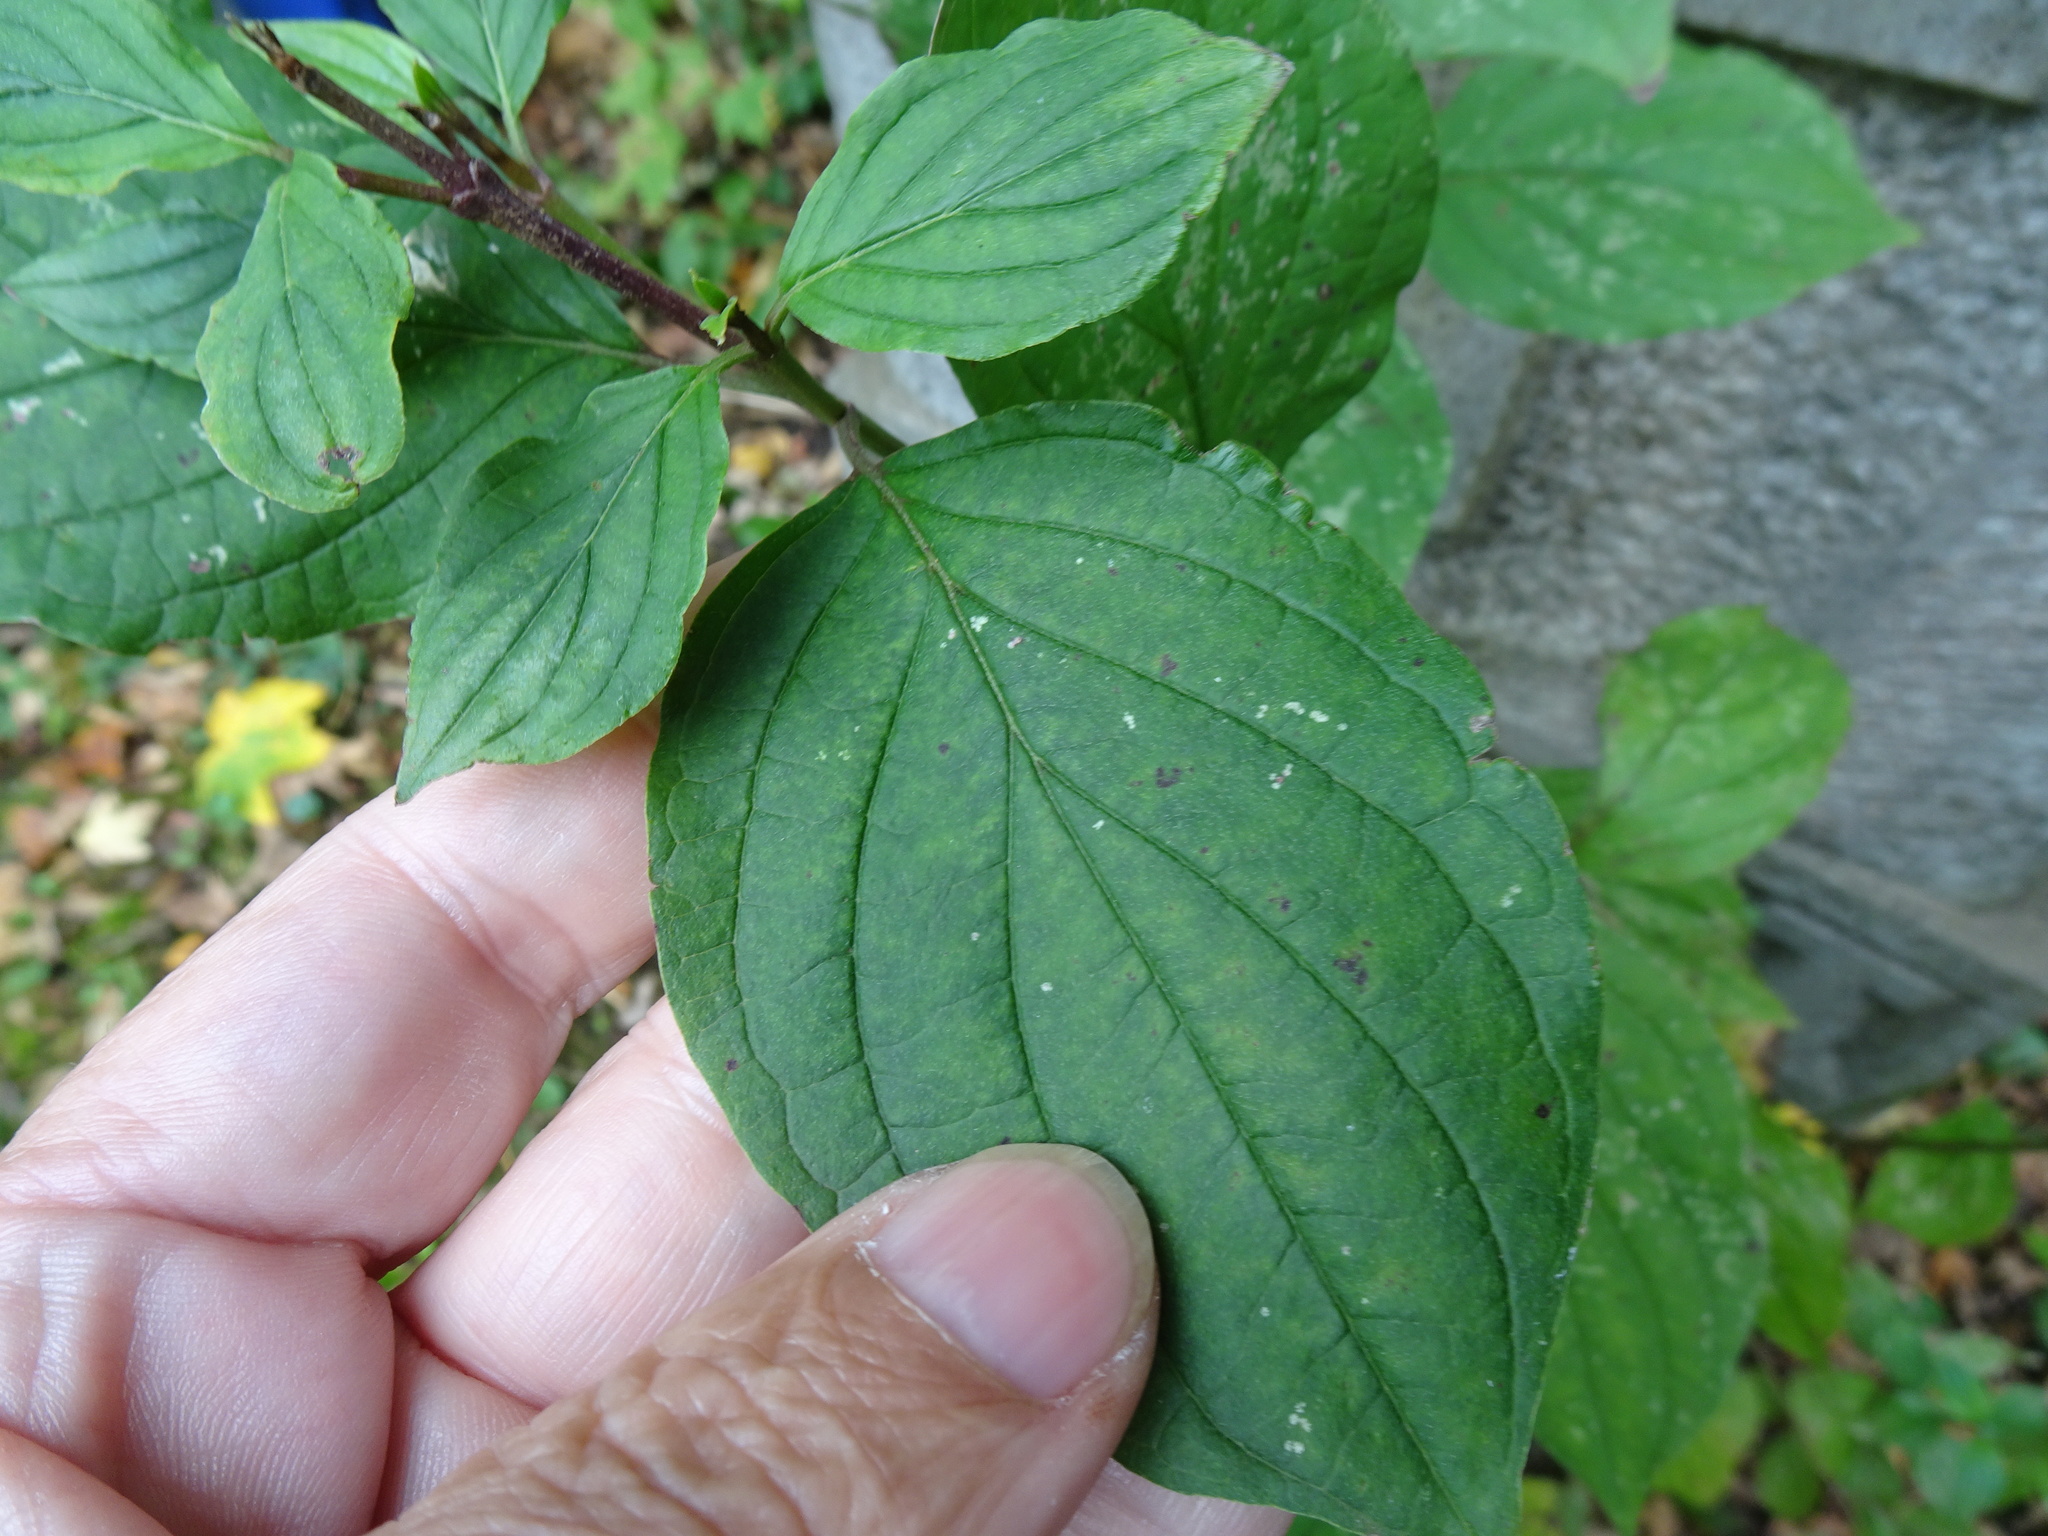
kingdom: Plantae
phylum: Tracheophyta
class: Magnoliopsida
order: Cornales
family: Cornaceae
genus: Cornus
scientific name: Cornus sanguinea
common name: Dogwood
